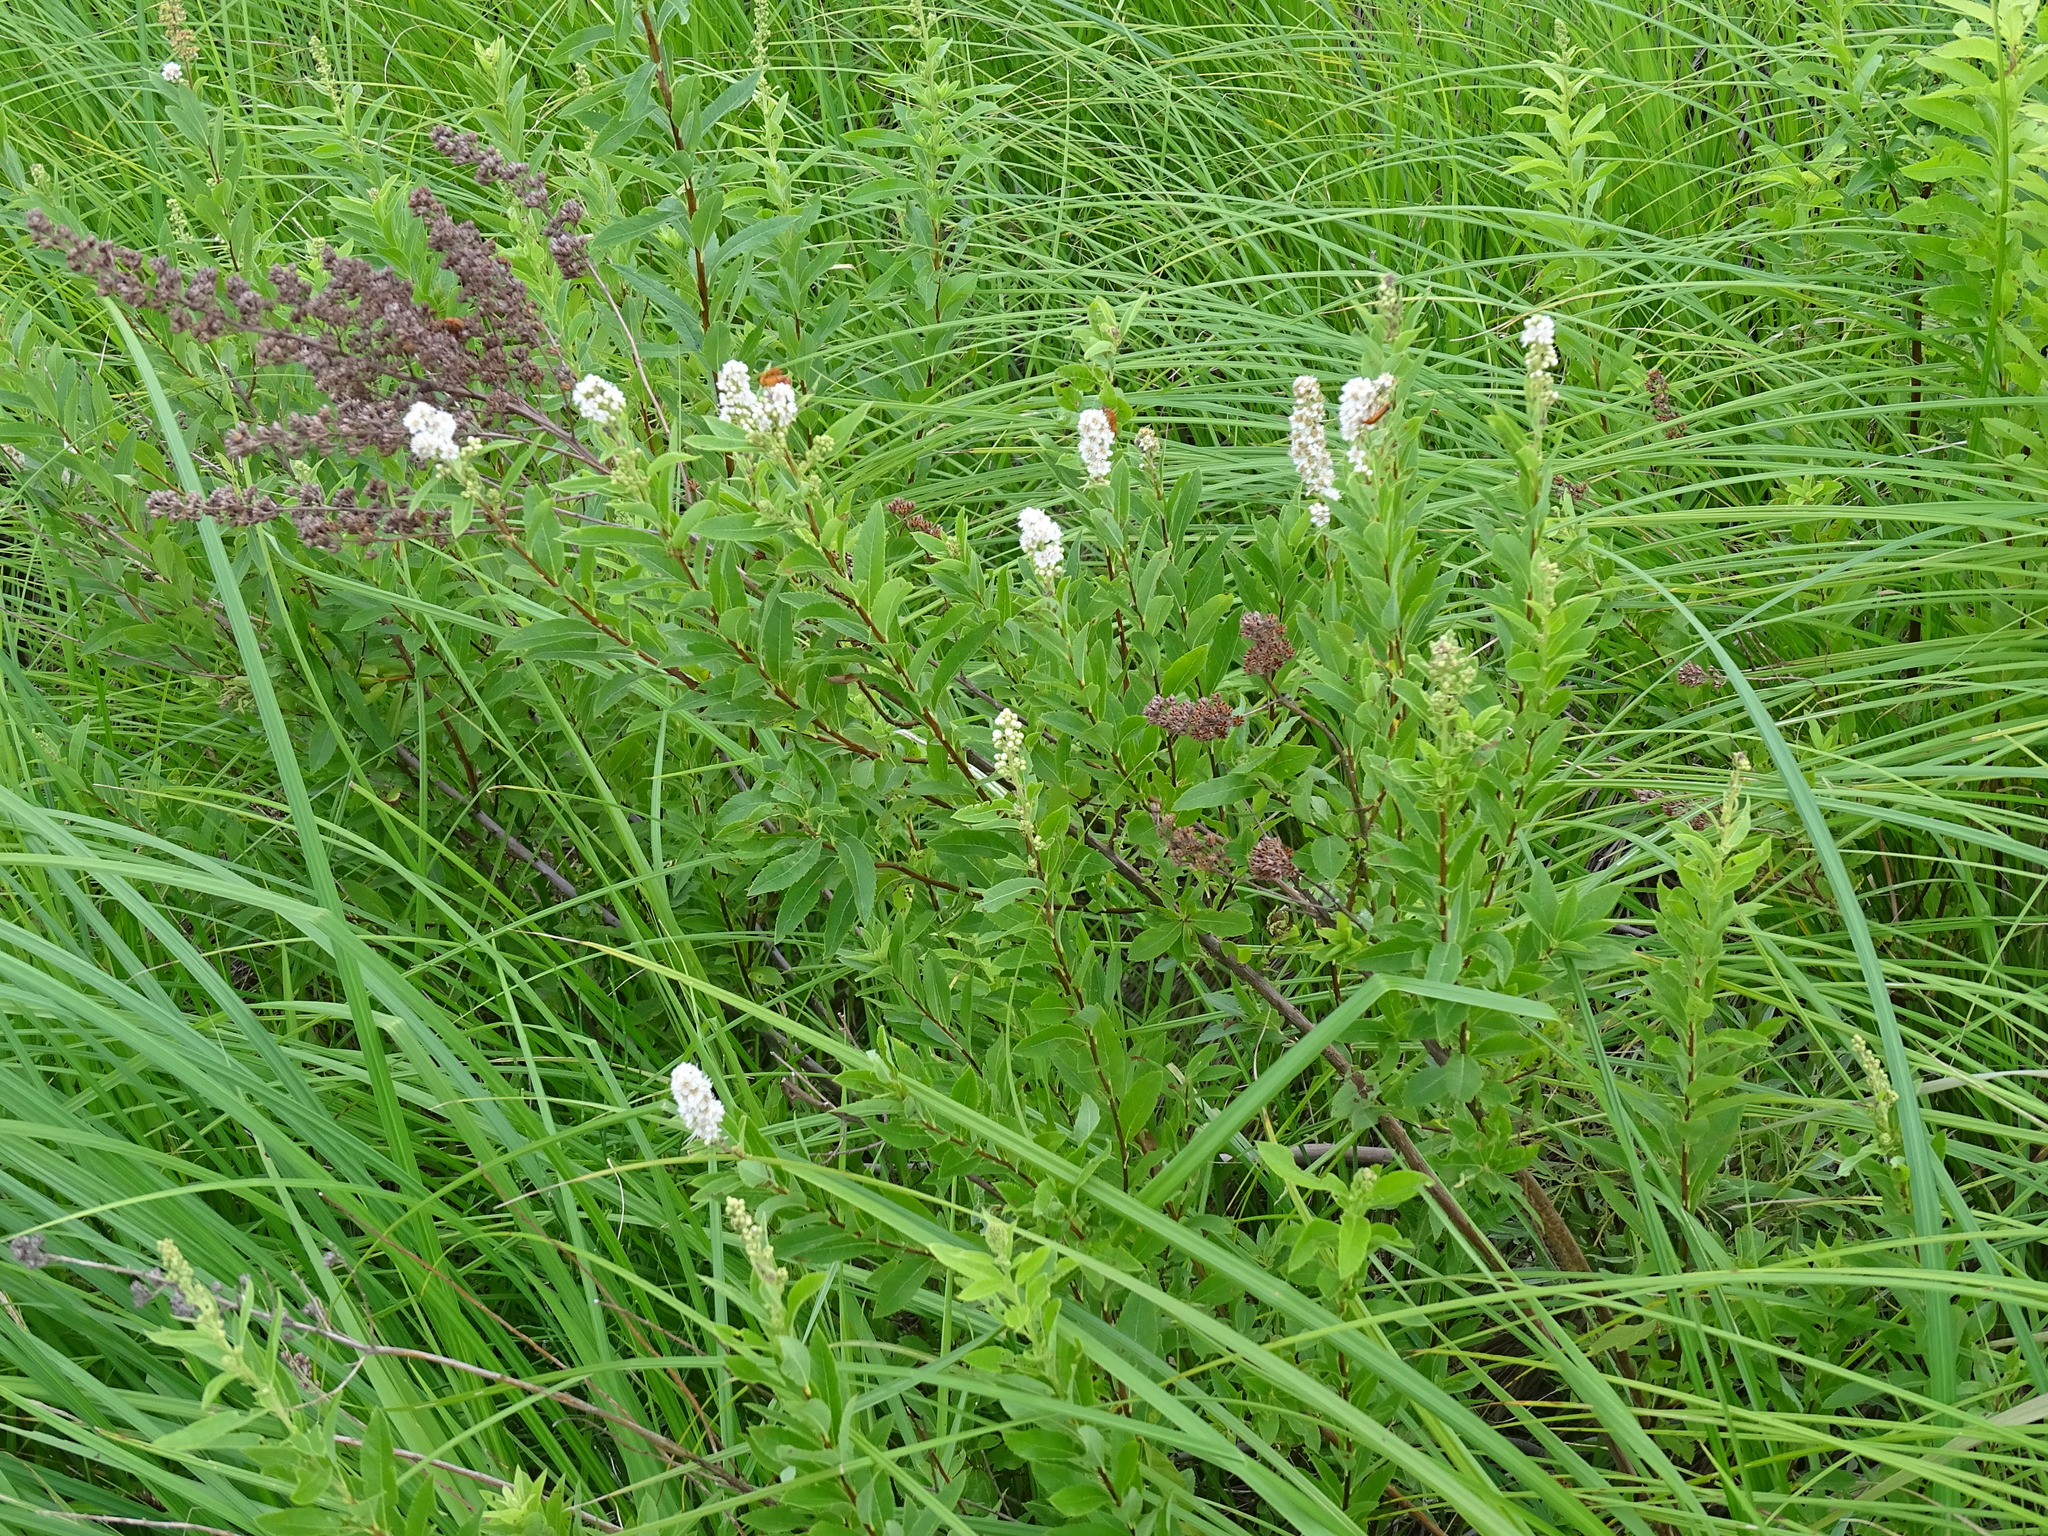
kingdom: Plantae
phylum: Tracheophyta
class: Magnoliopsida
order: Rosales
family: Rosaceae
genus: Spiraea
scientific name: Spiraea alba
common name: Pale bridewort
